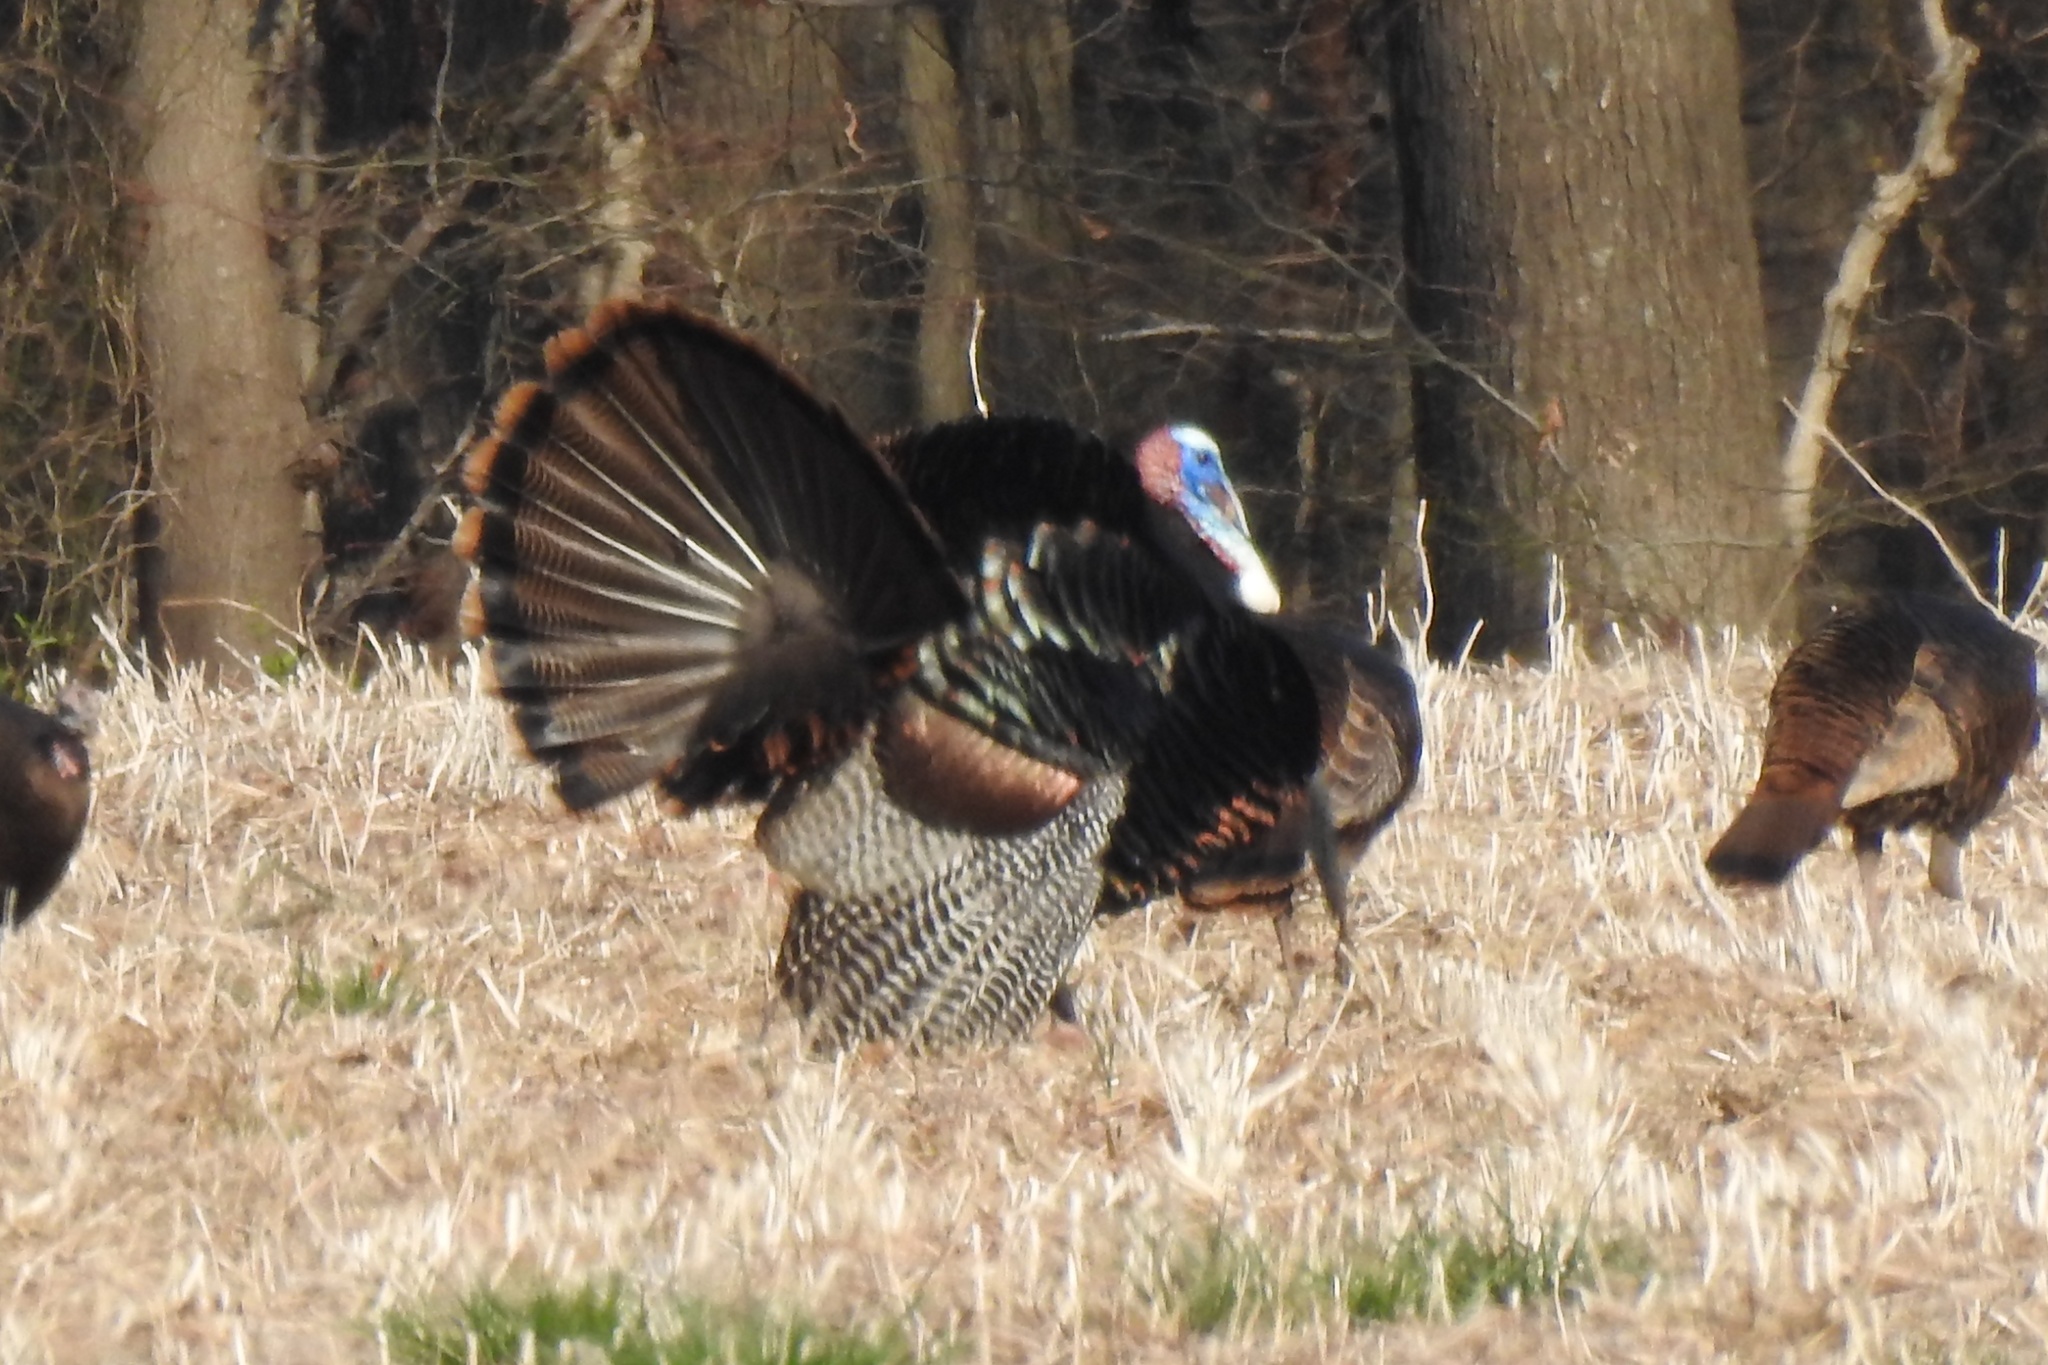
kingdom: Animalia
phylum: Chordata
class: Aves
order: Galliformes
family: Phasianidae
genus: Meleagris
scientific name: Meleagris gallopavo
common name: Wild turkey
